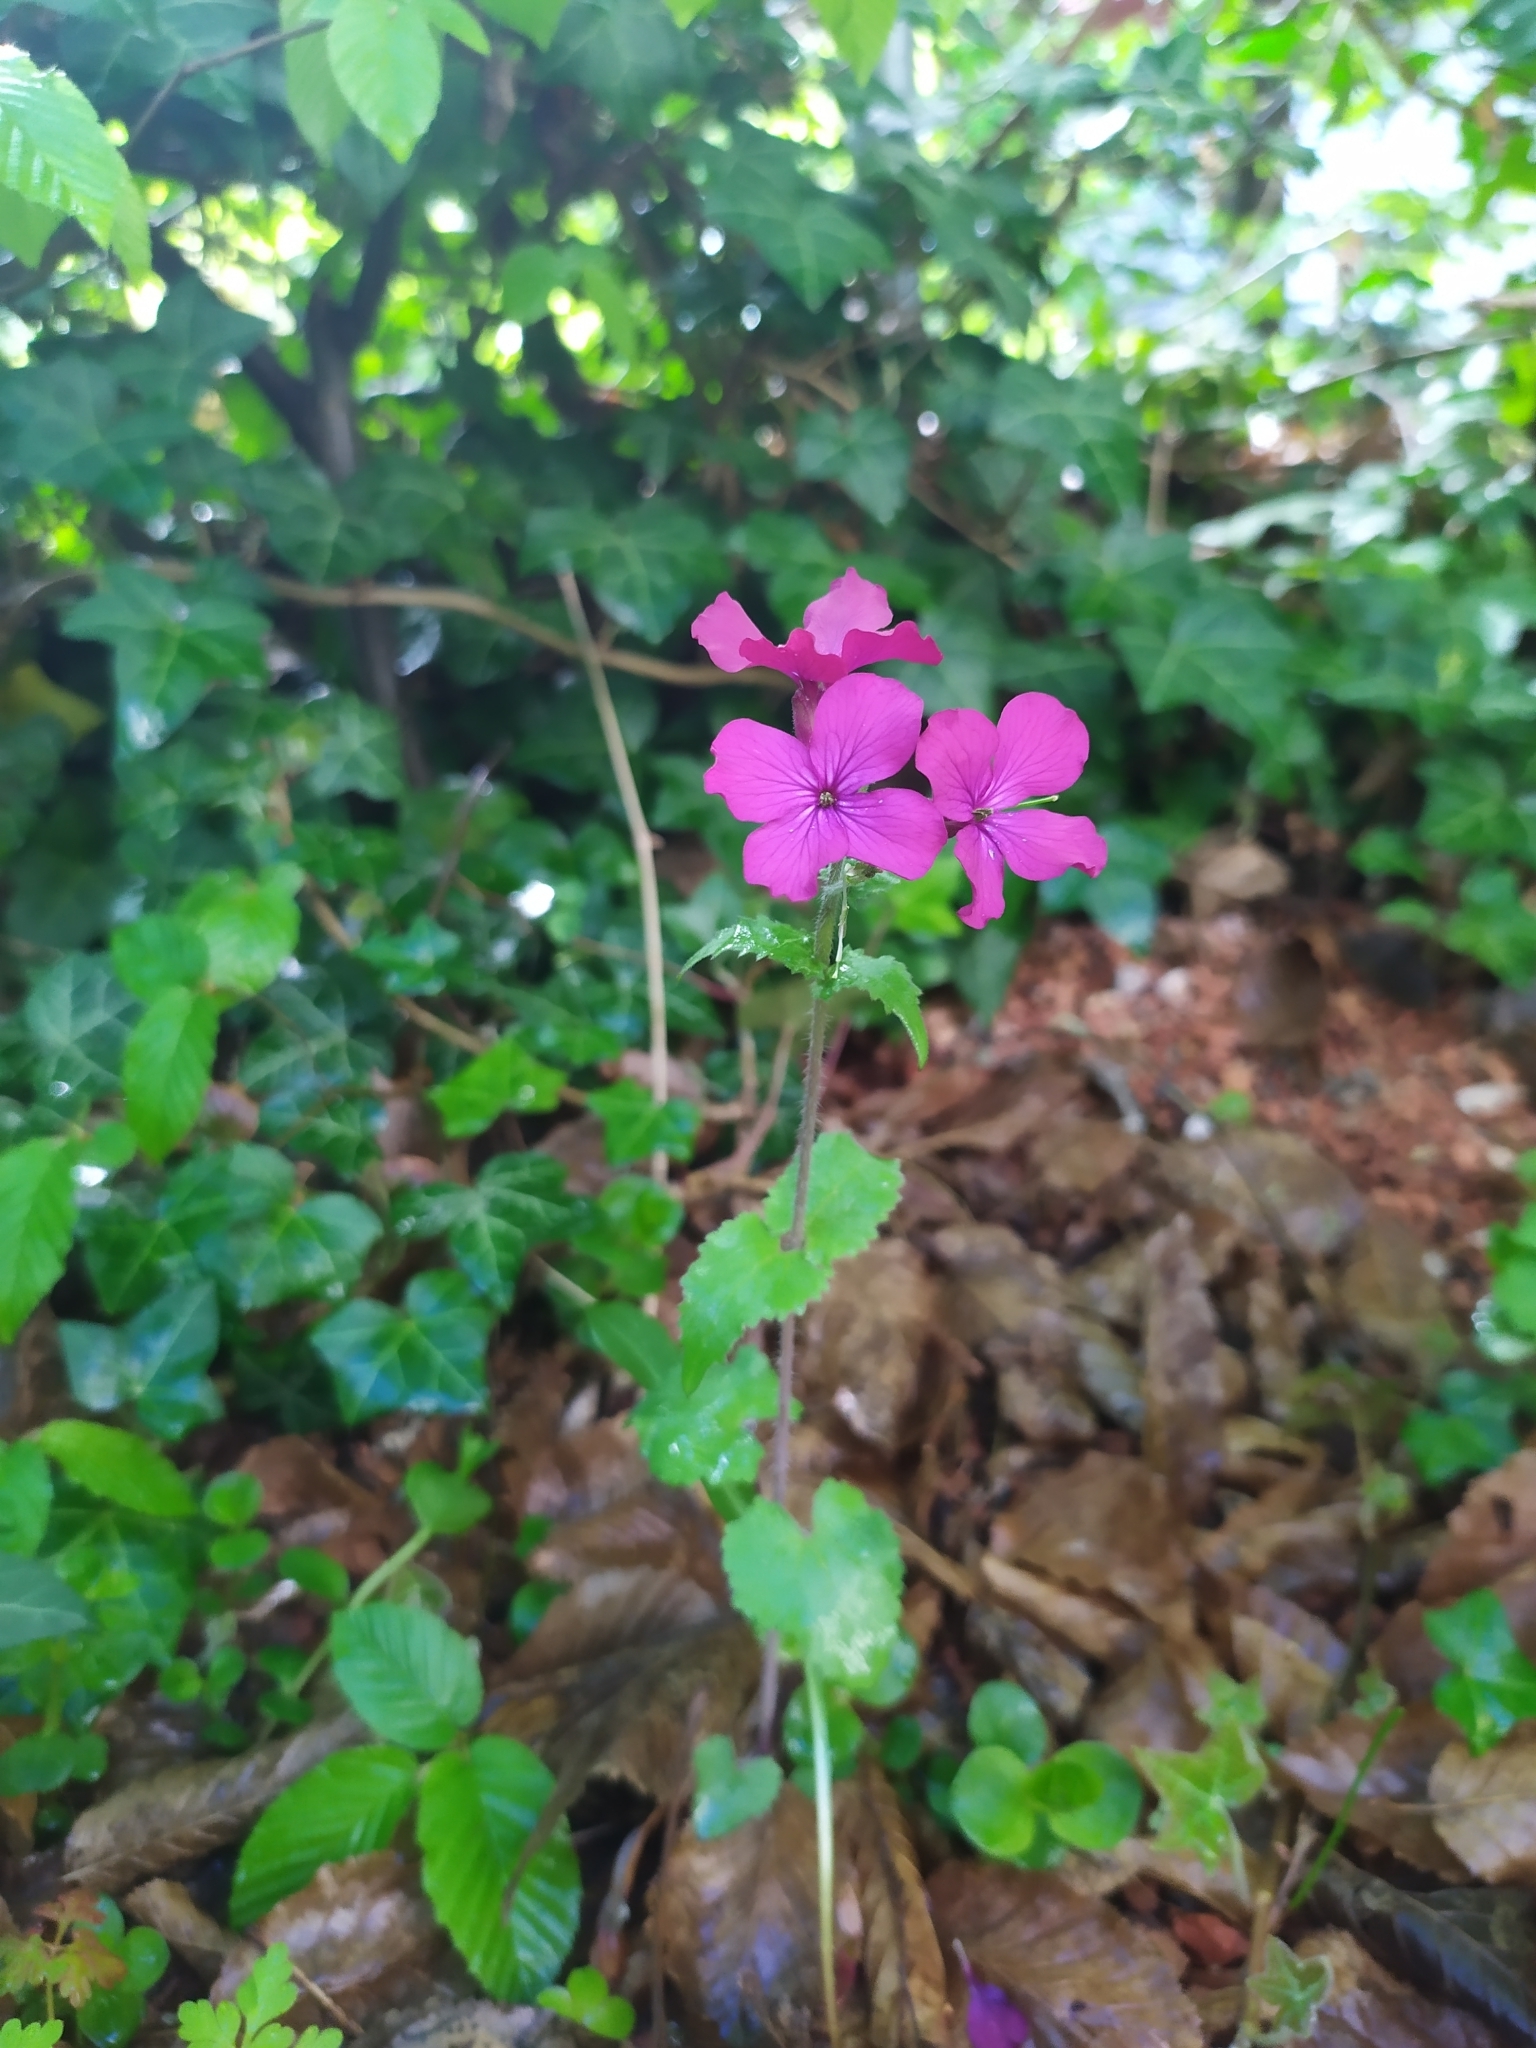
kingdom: Plantae
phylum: Tracheophyta
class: Magnoliopsida
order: Brassicales
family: Brassicaceae
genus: Lunaria
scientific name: Lunaria annua
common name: Honesty
